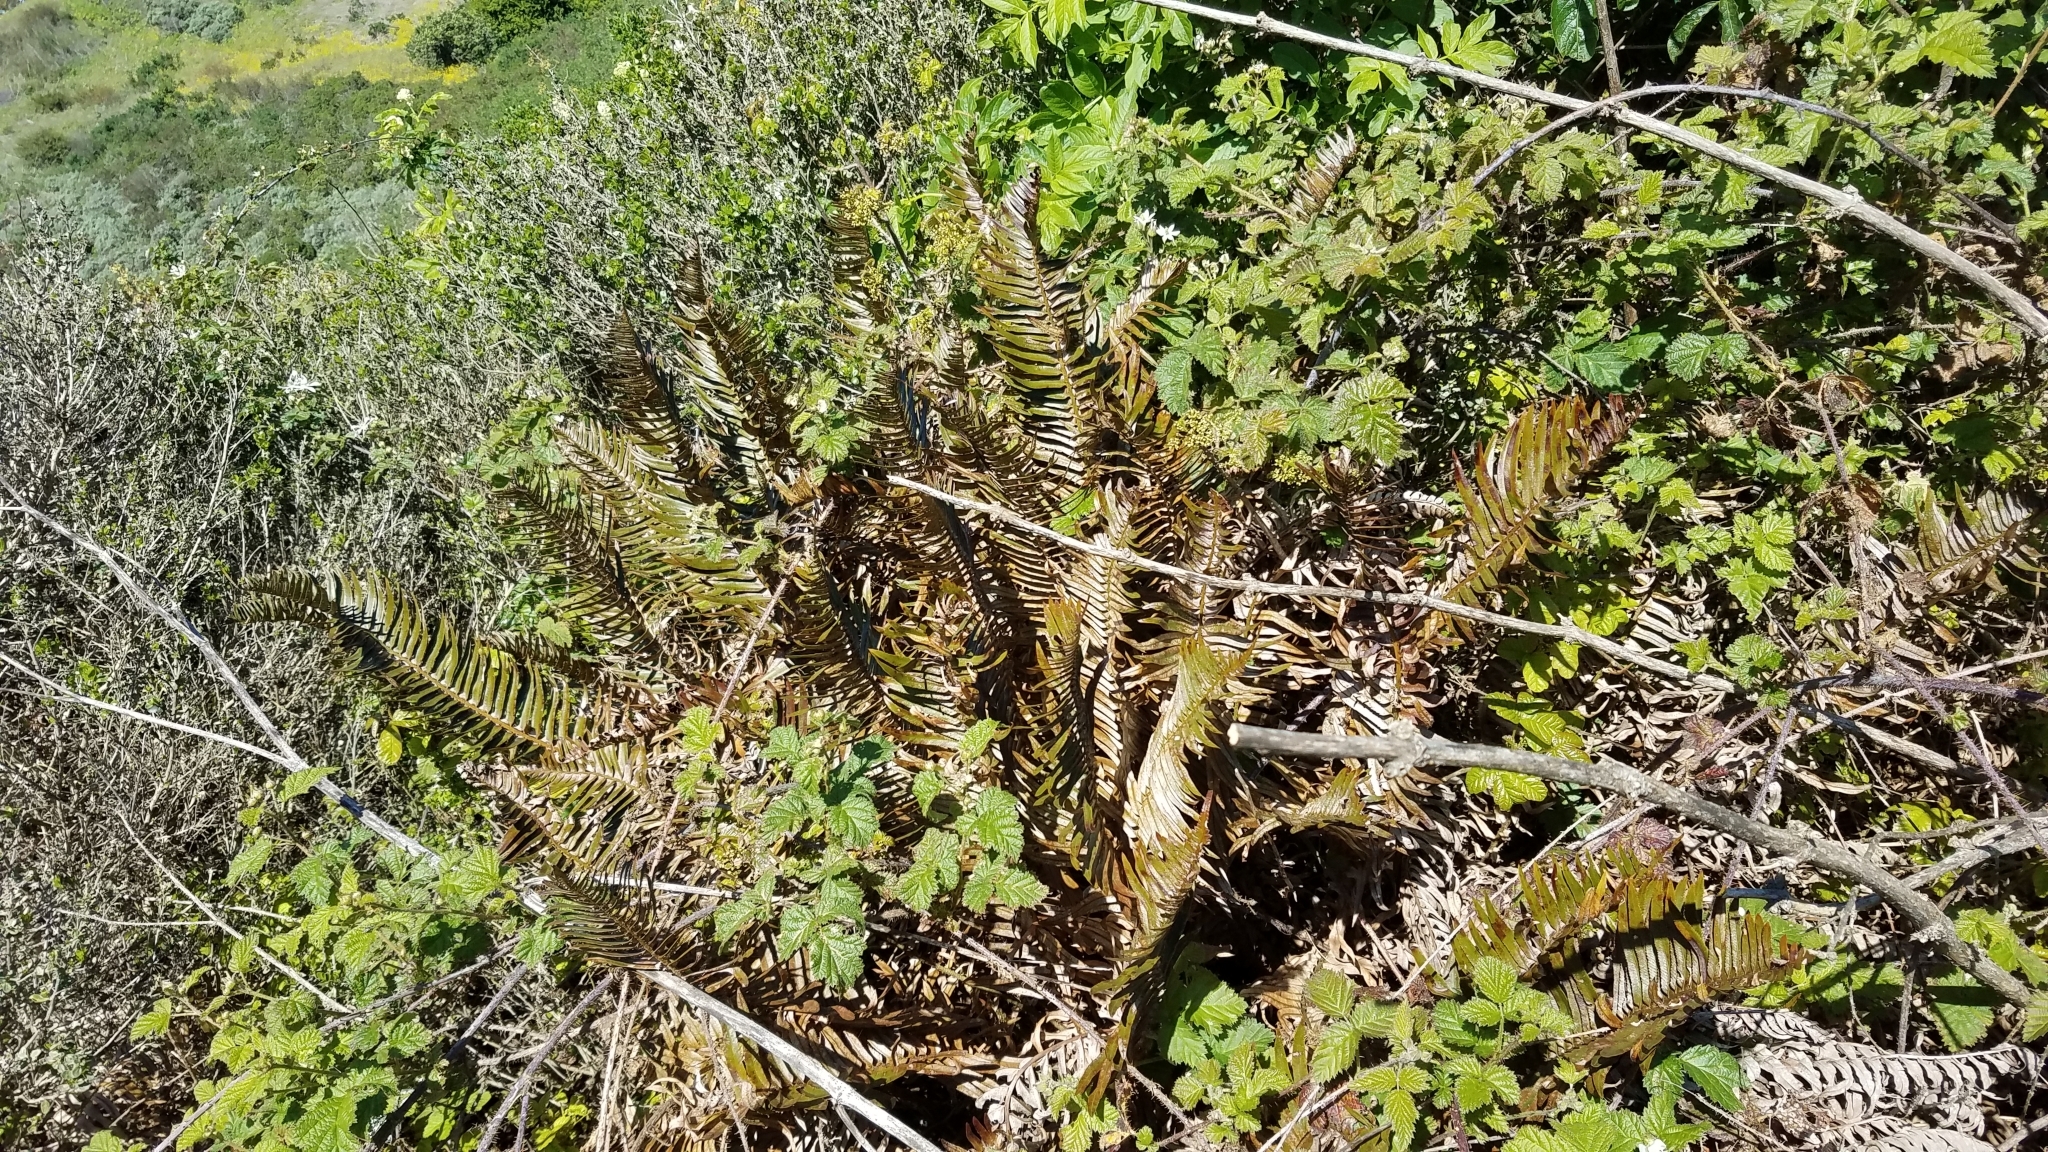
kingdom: Plantae
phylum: Tracheophyta
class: Polypodiopsida
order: Polypodiales
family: Dryopteridaceae
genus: Polystichum
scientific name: Polystichum munitum
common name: Western sword-fern
